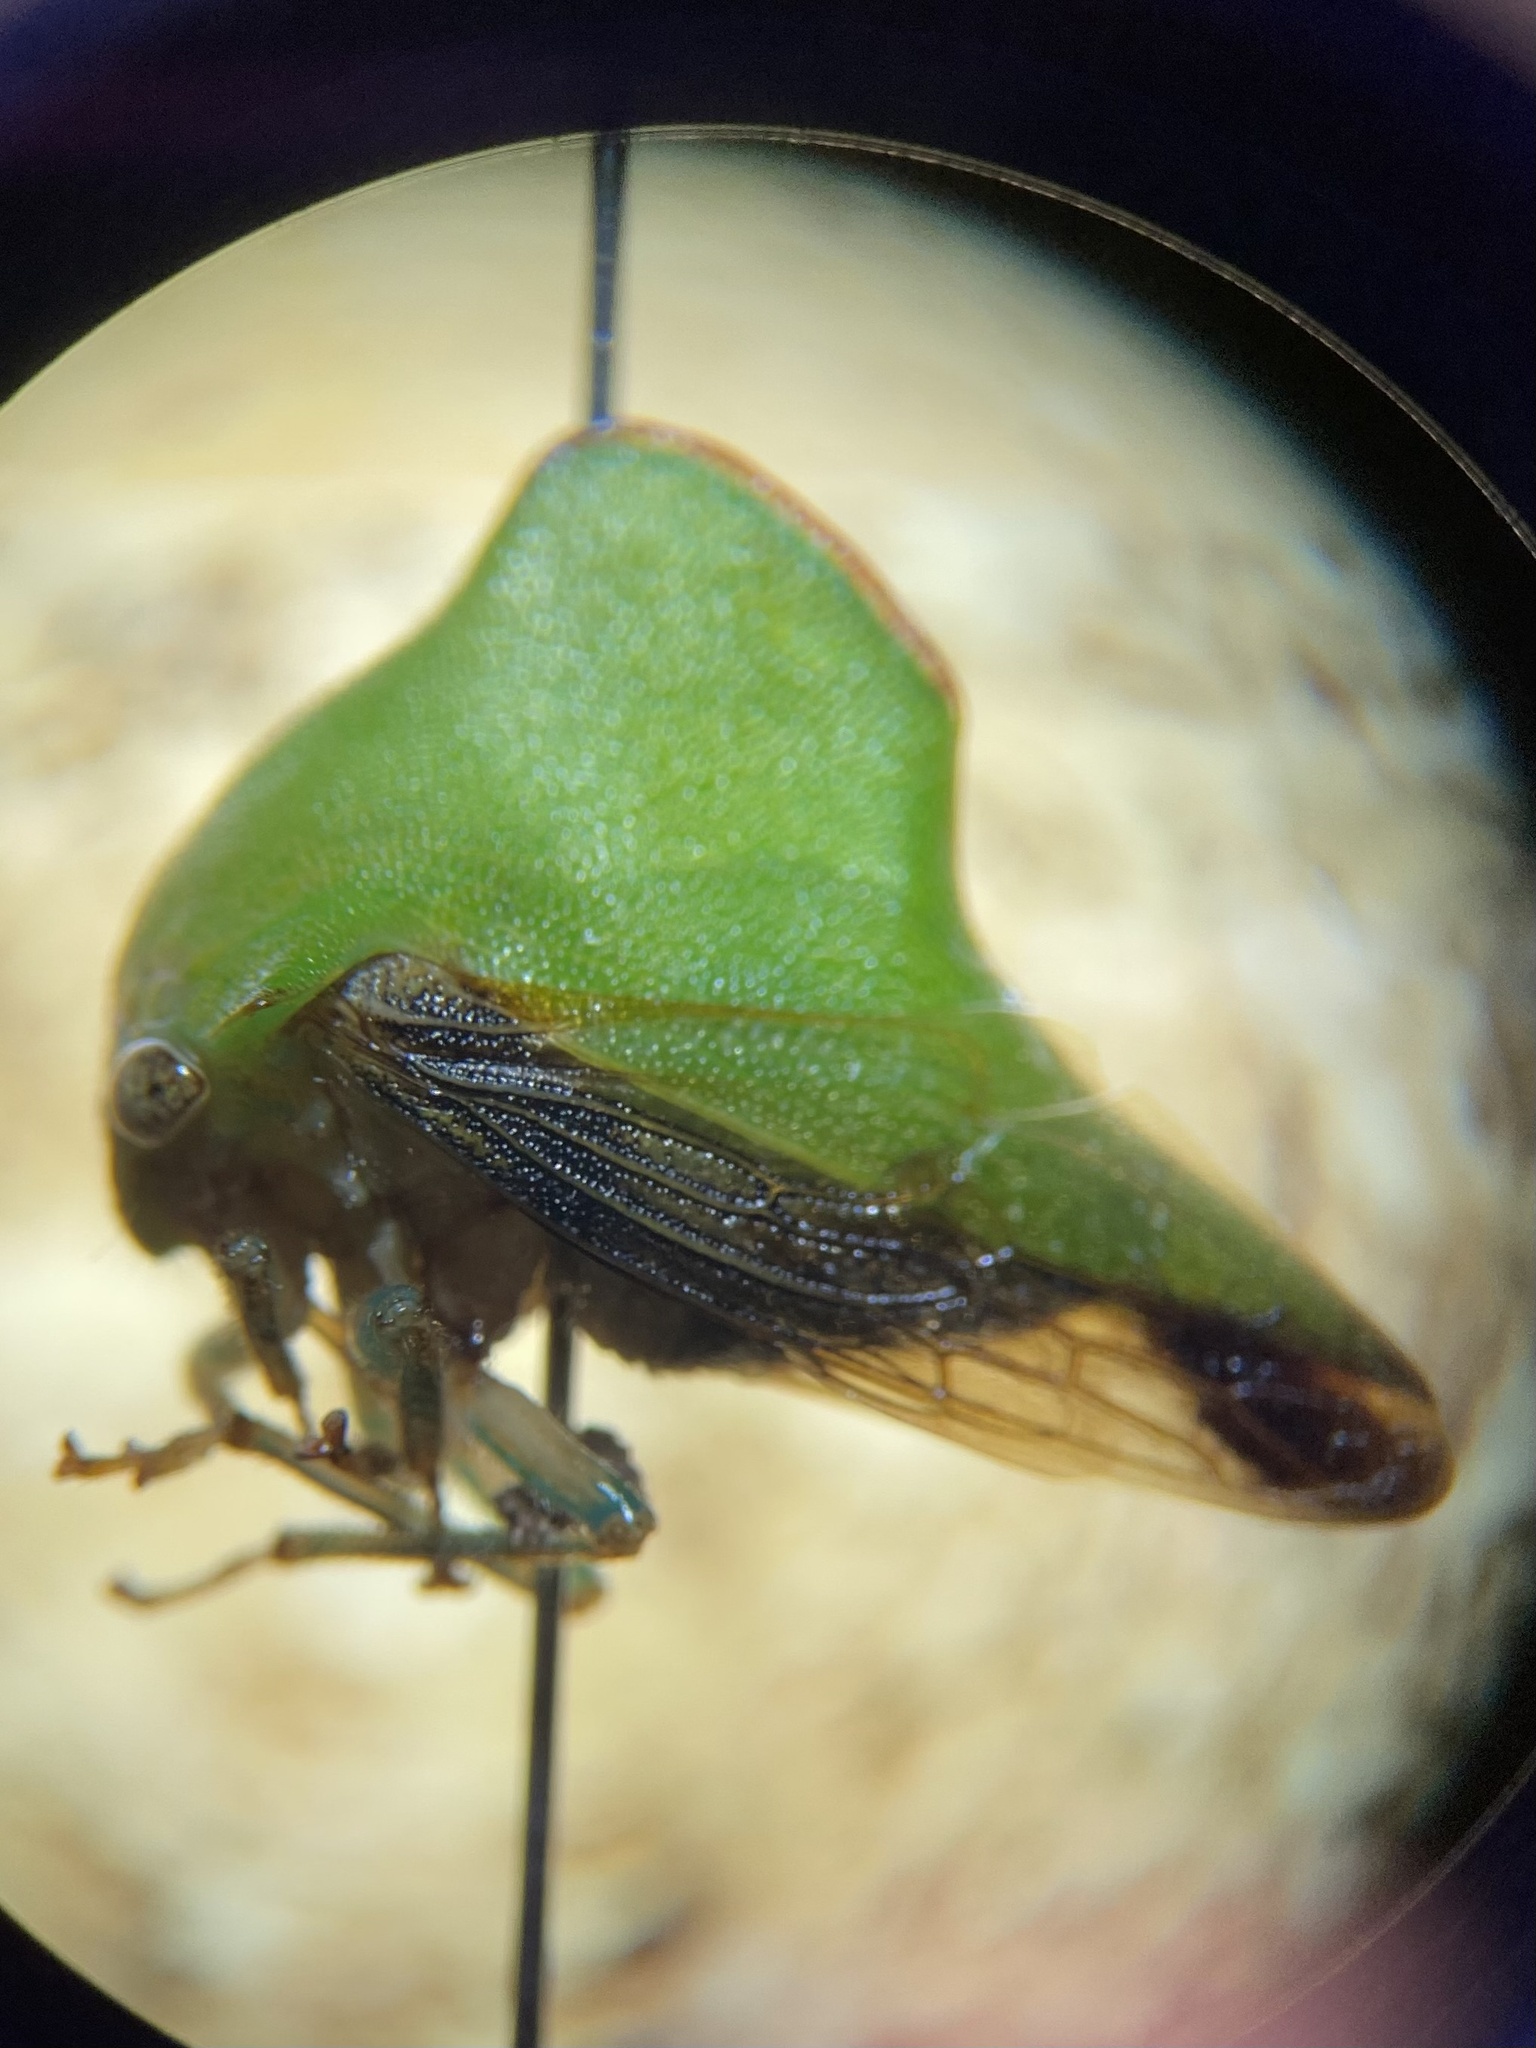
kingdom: Animalia
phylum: Arthropoda
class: Insecta
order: Hemiptera
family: Membracidae
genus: Helonica
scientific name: Helonica excelsa
